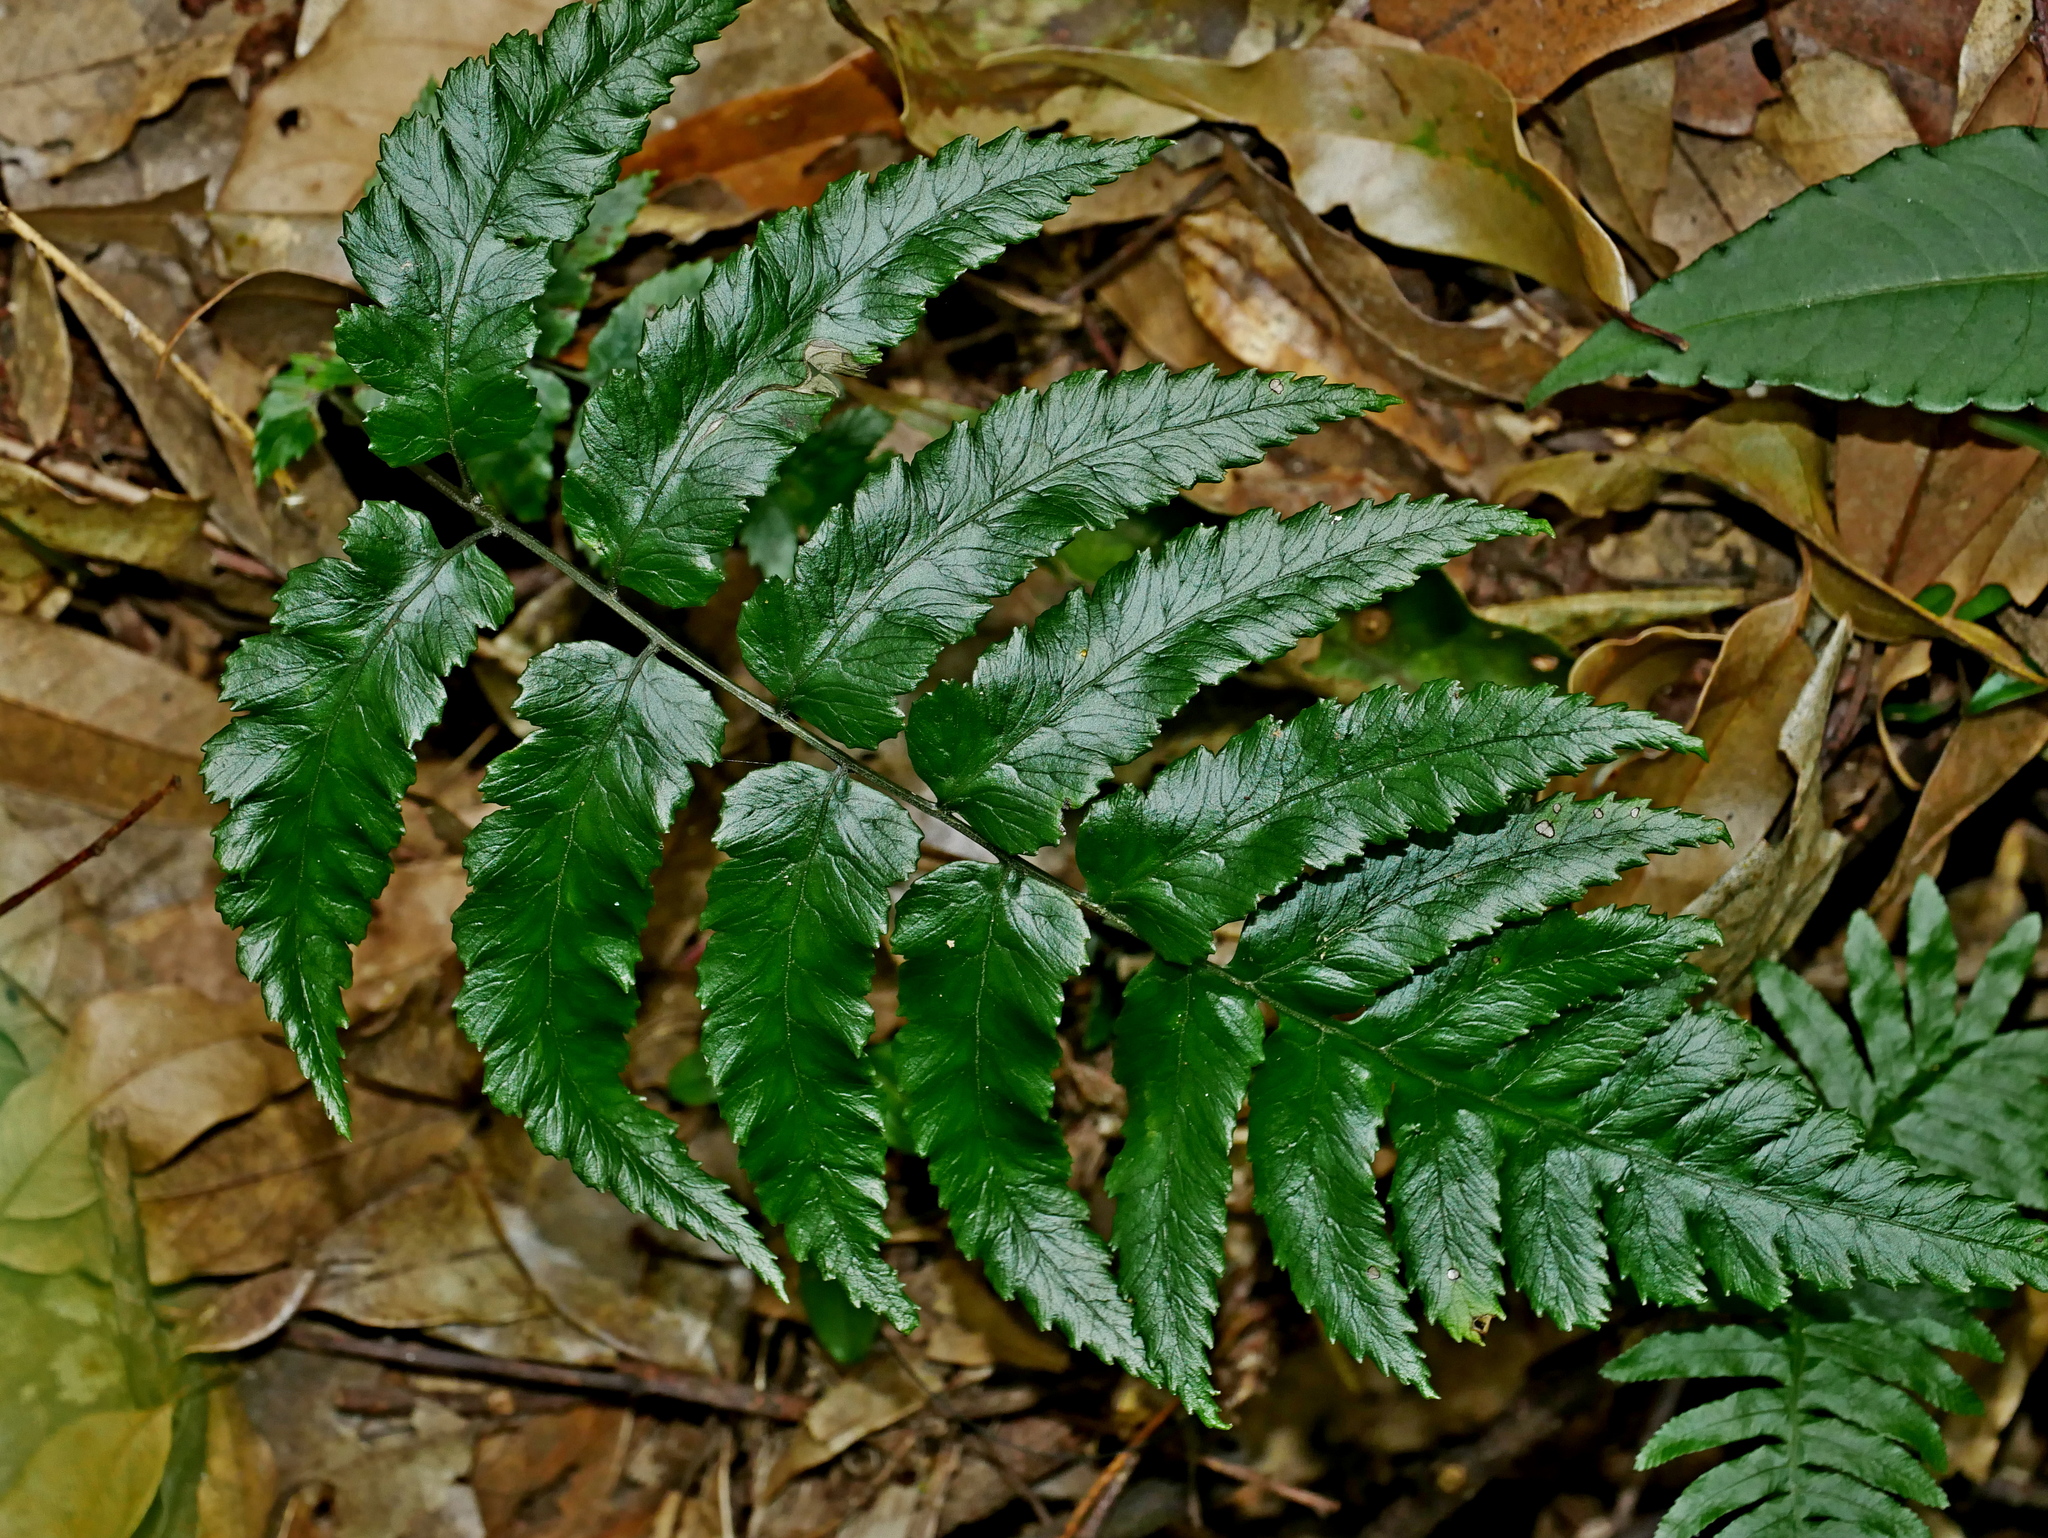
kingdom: Plantae
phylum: Tracheophyta
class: Polypodiopsida
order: Polypodiales
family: Athyriaceae
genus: Diplazium
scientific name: Diplazium fauriei
